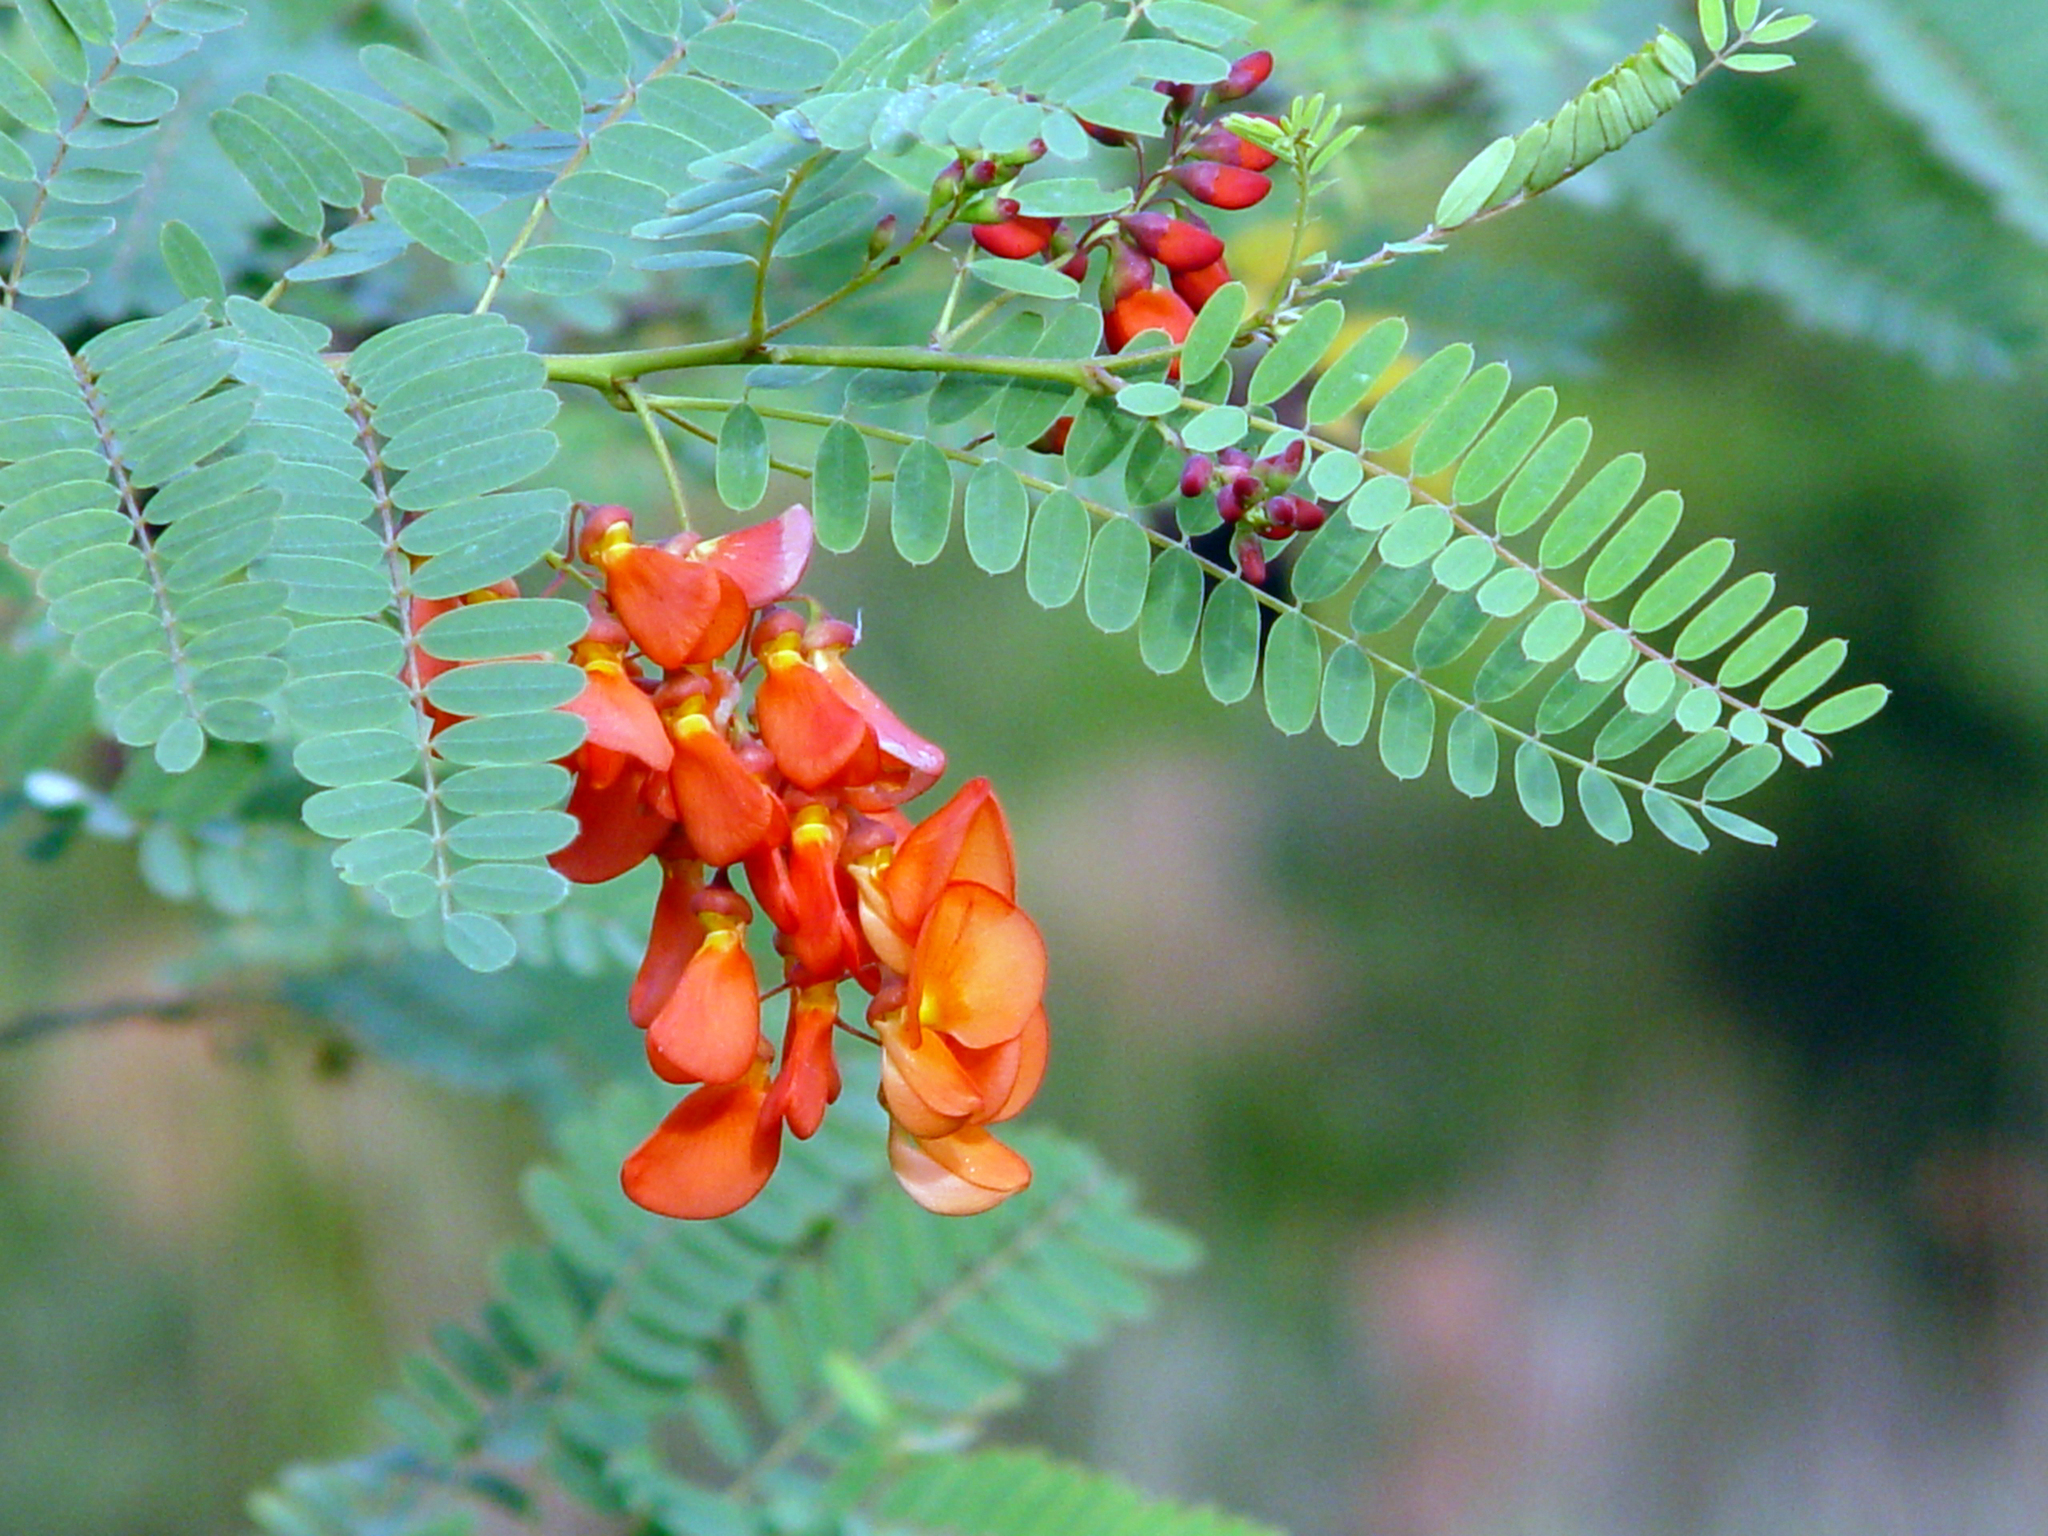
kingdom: Plantae
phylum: Tracheophyta
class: Magnoliopsida
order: Fabales
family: Fabaceae
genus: Sesbania
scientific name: Sesbania punicea
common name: Rattlebox
